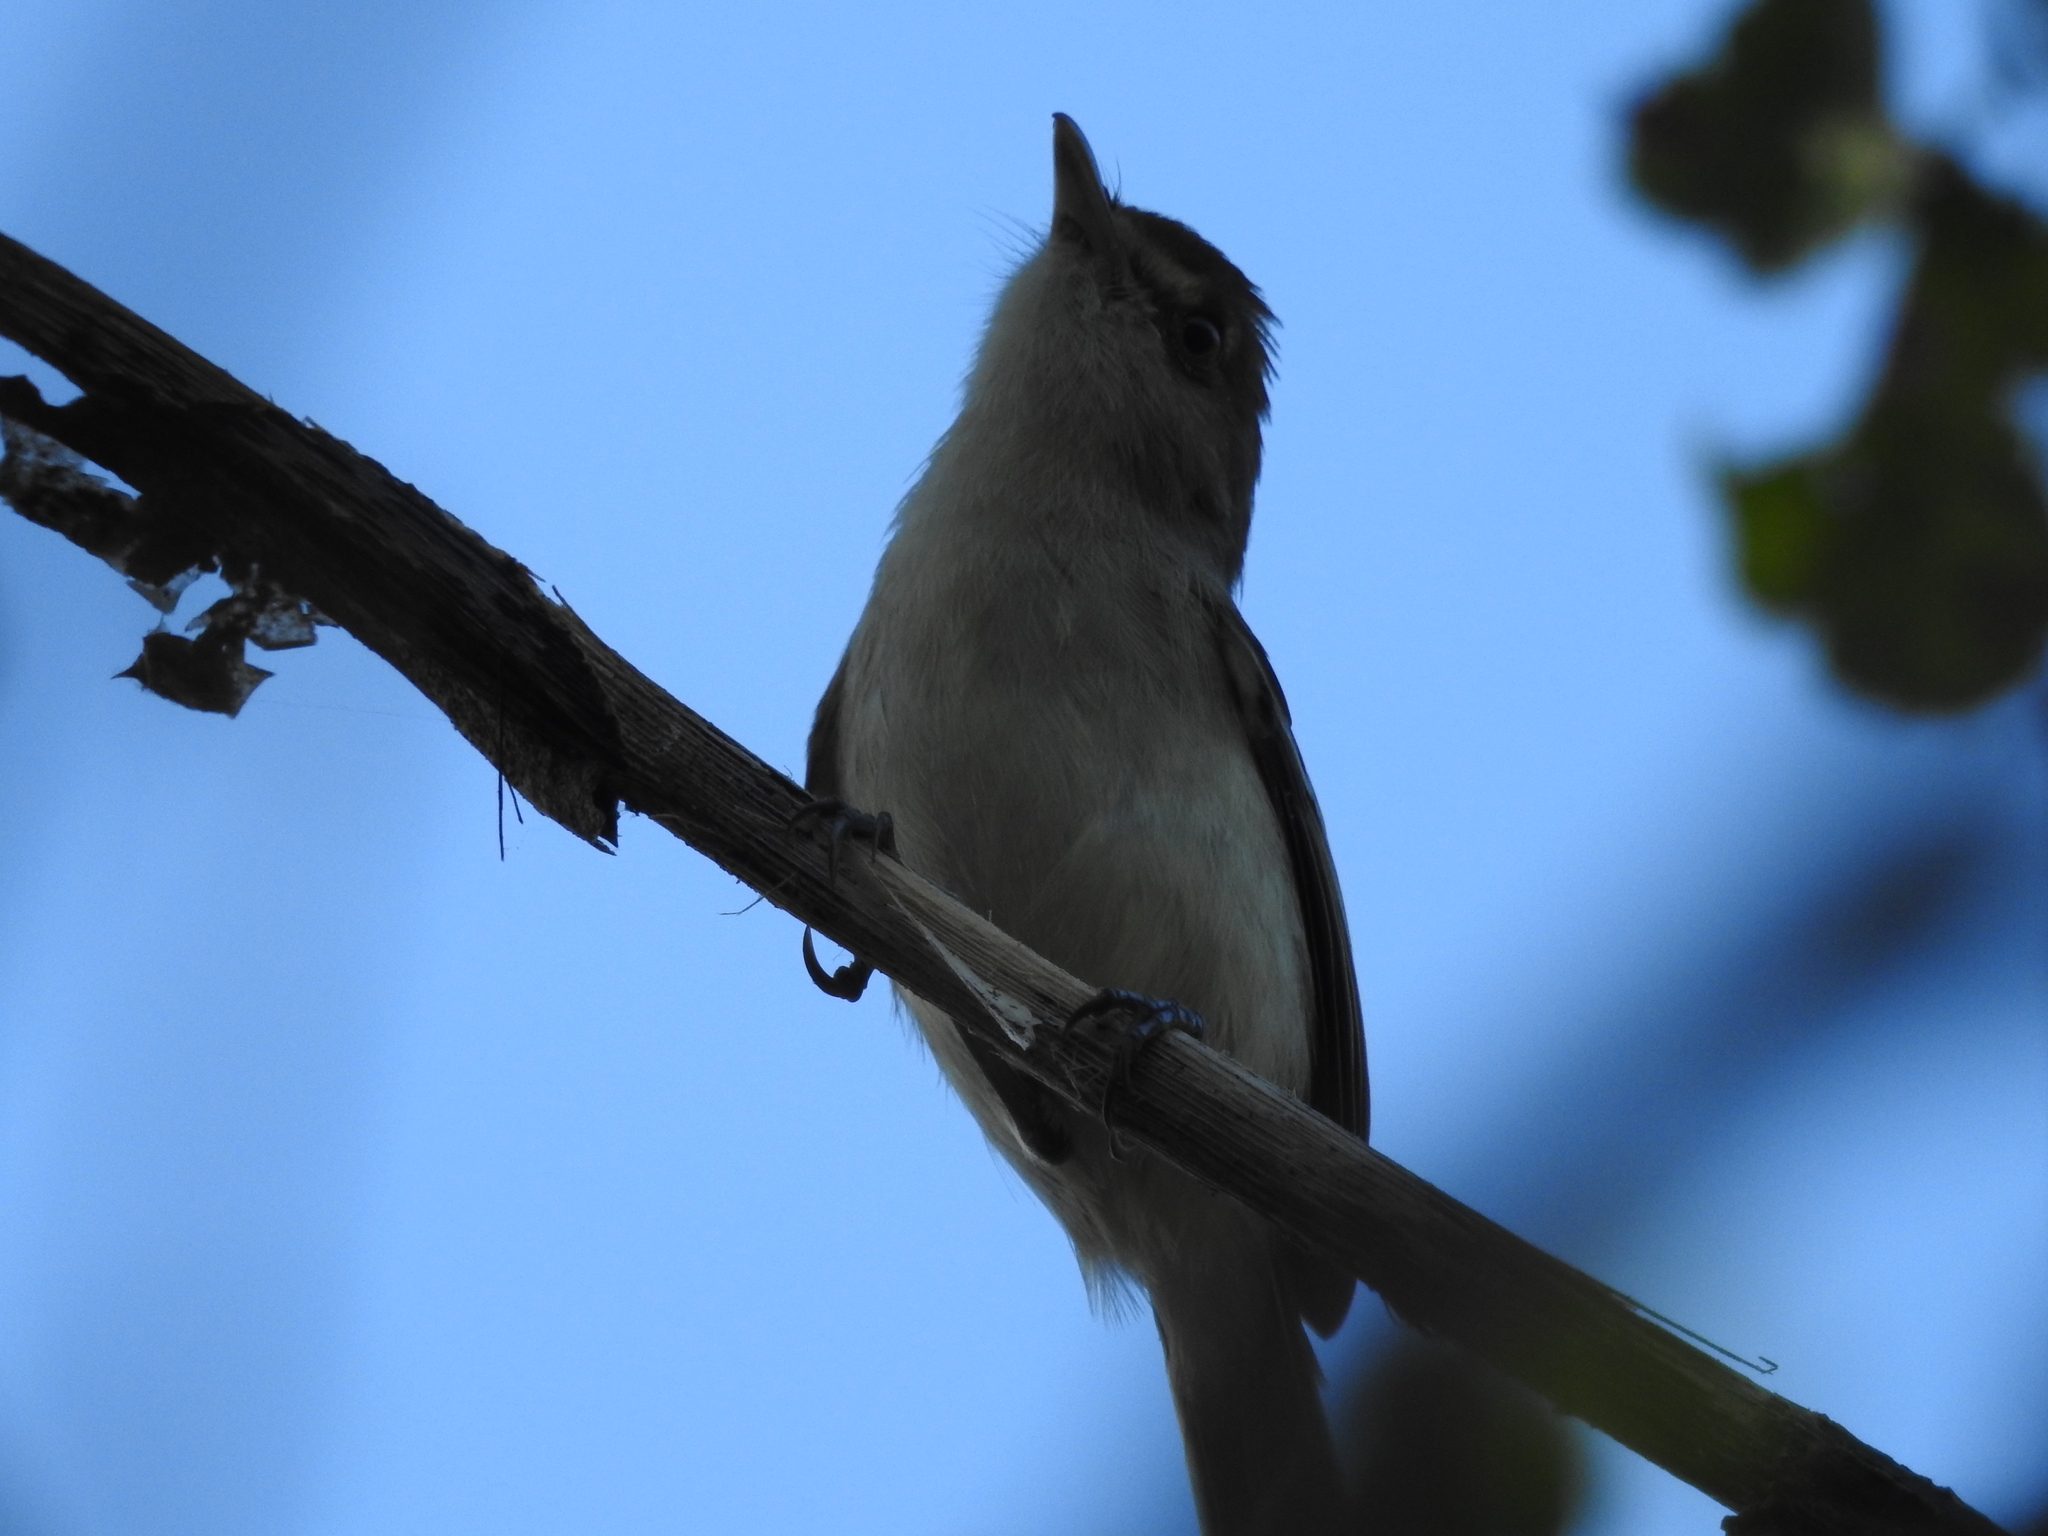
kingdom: Animalia
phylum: Chordata
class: Aves
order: Passeriformes
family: Vireonidae
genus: Vireo
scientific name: Vireo pallens
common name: Mangrove vireo
